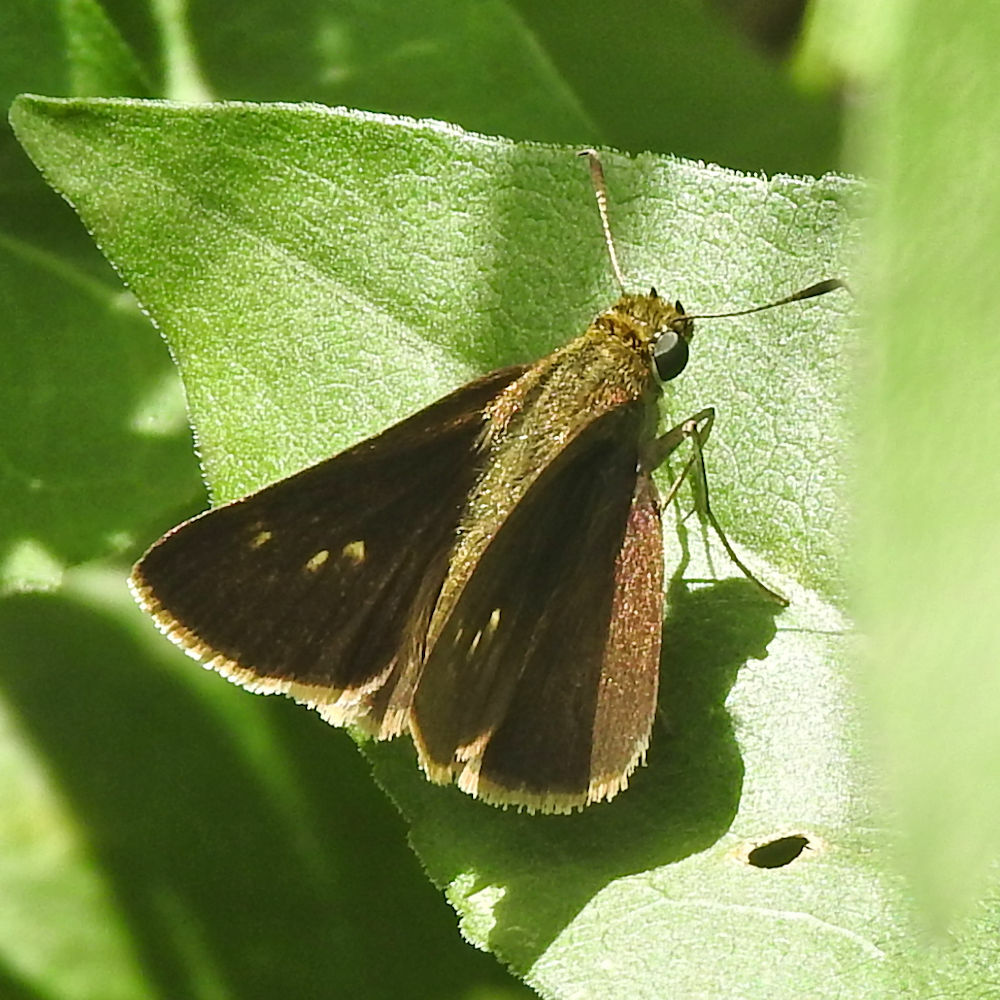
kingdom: Animalia
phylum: Arthropoda
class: Insecta
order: Lepidoptera
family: Hesperiidae
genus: Euphyes
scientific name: Euphyes vestris
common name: Dun skipper
